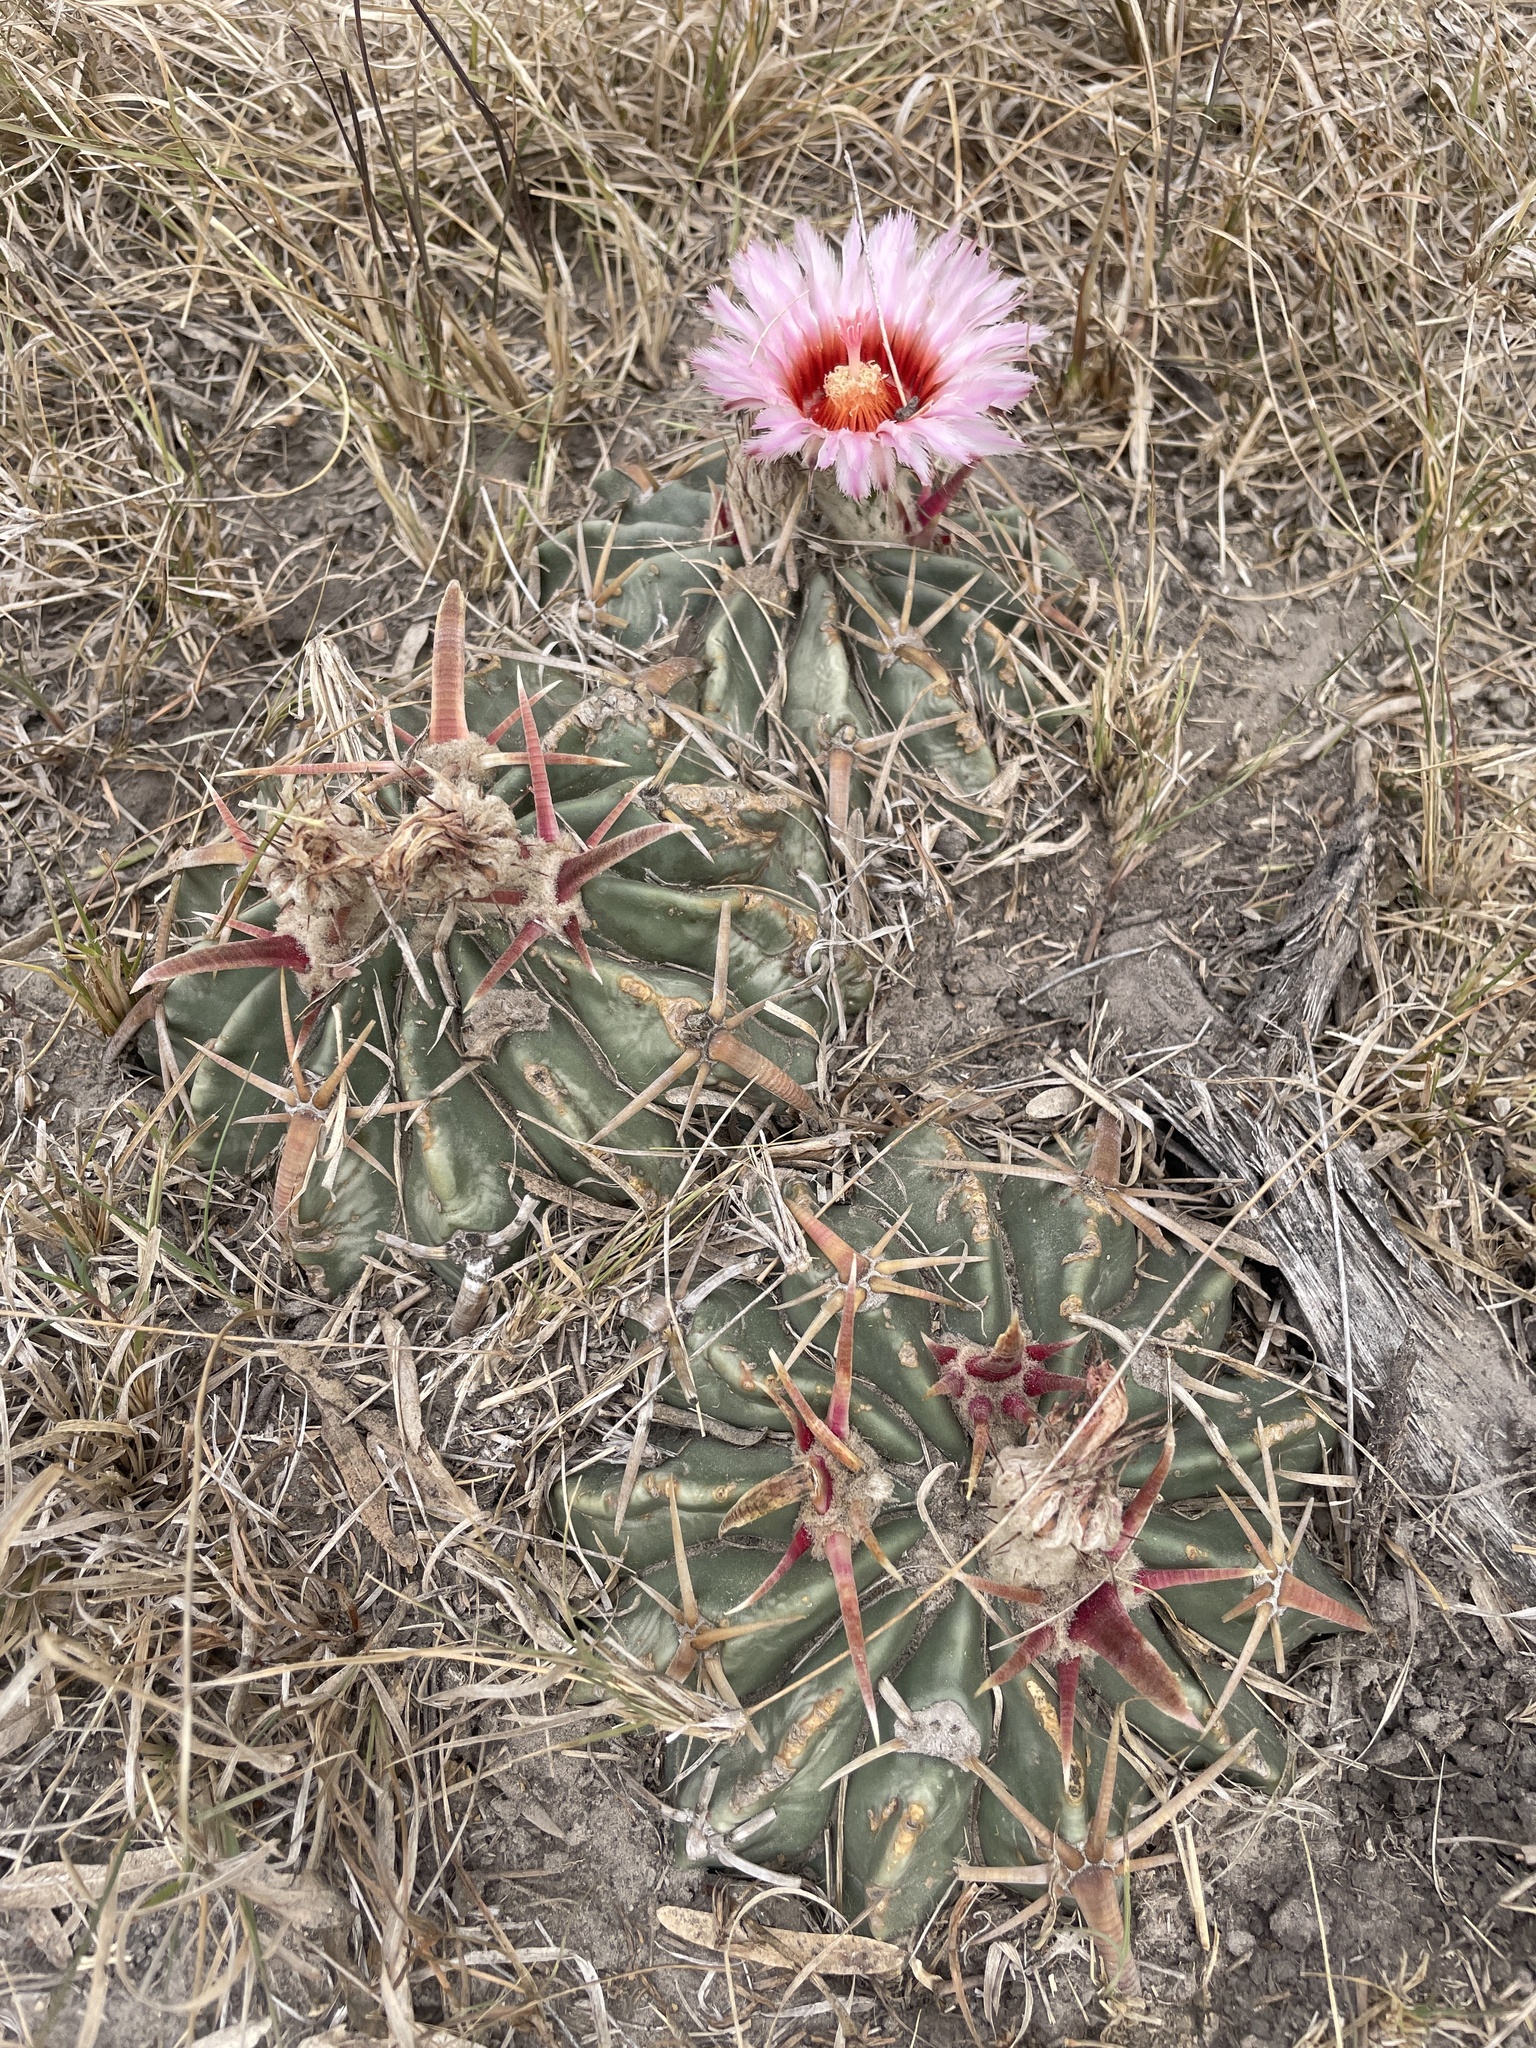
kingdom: Plantae
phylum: Tracheophyta
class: Magnoliopsida
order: Caryophyllales
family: Cactaceae
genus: Echinocactus
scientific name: Echinocactus texensis
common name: Devil's pincushion
